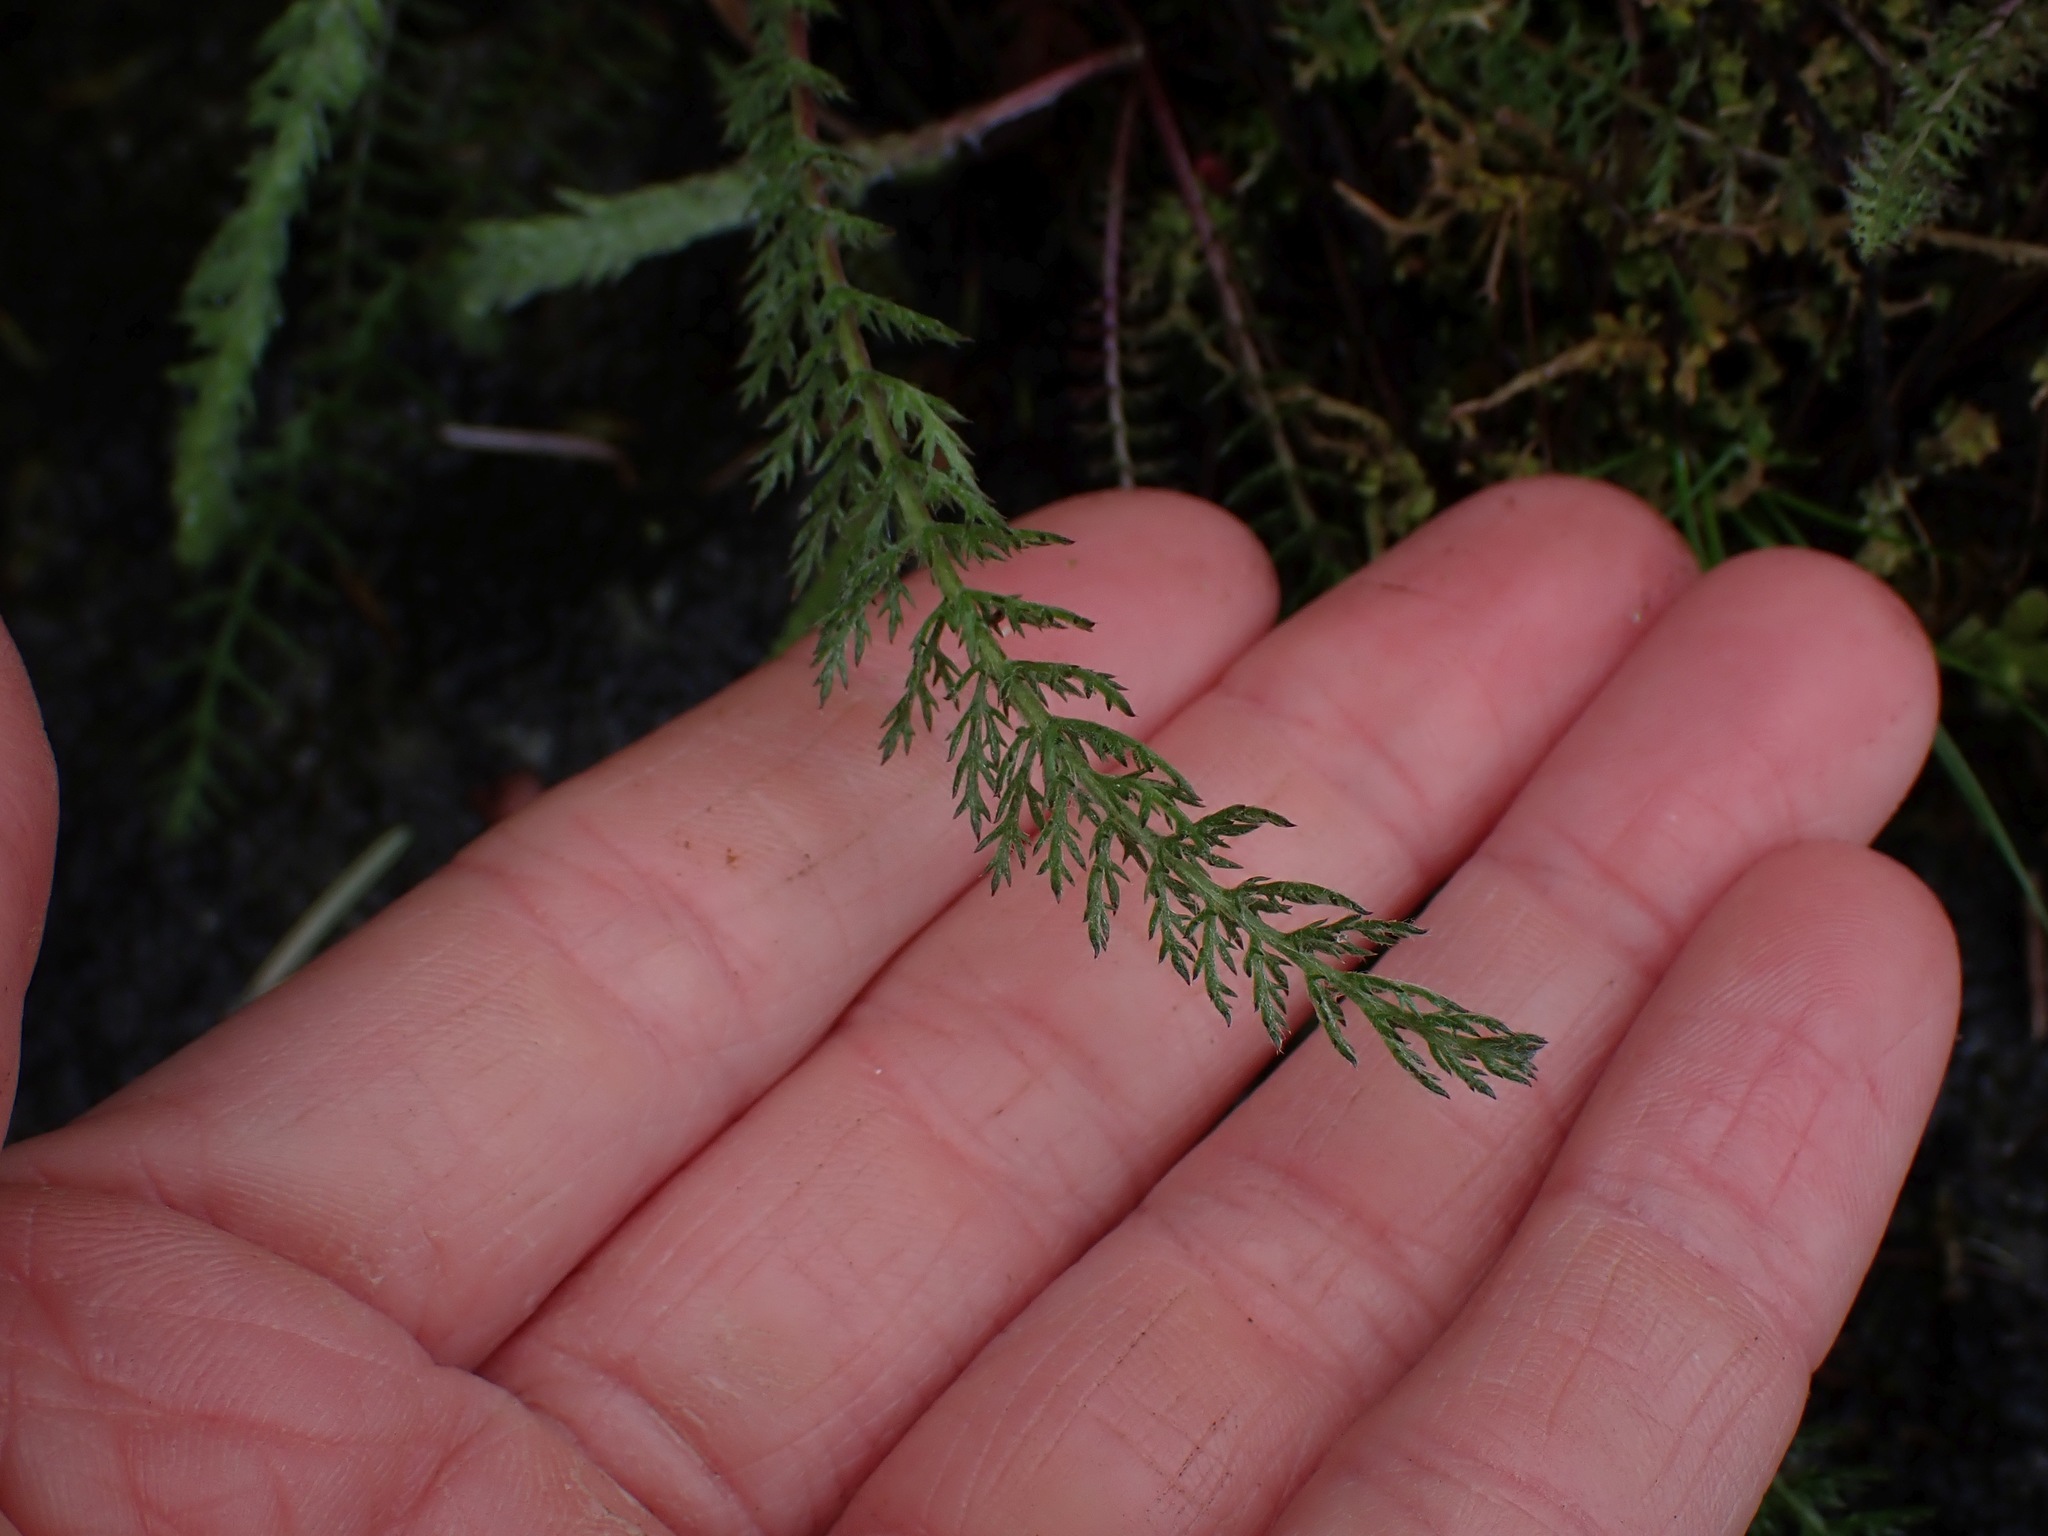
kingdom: Plantae
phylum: Tracheophyta
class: Magnoliopsida
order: Asterales
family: Asteraceae
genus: Achillea
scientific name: Achillea millefolium
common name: Yarrow
